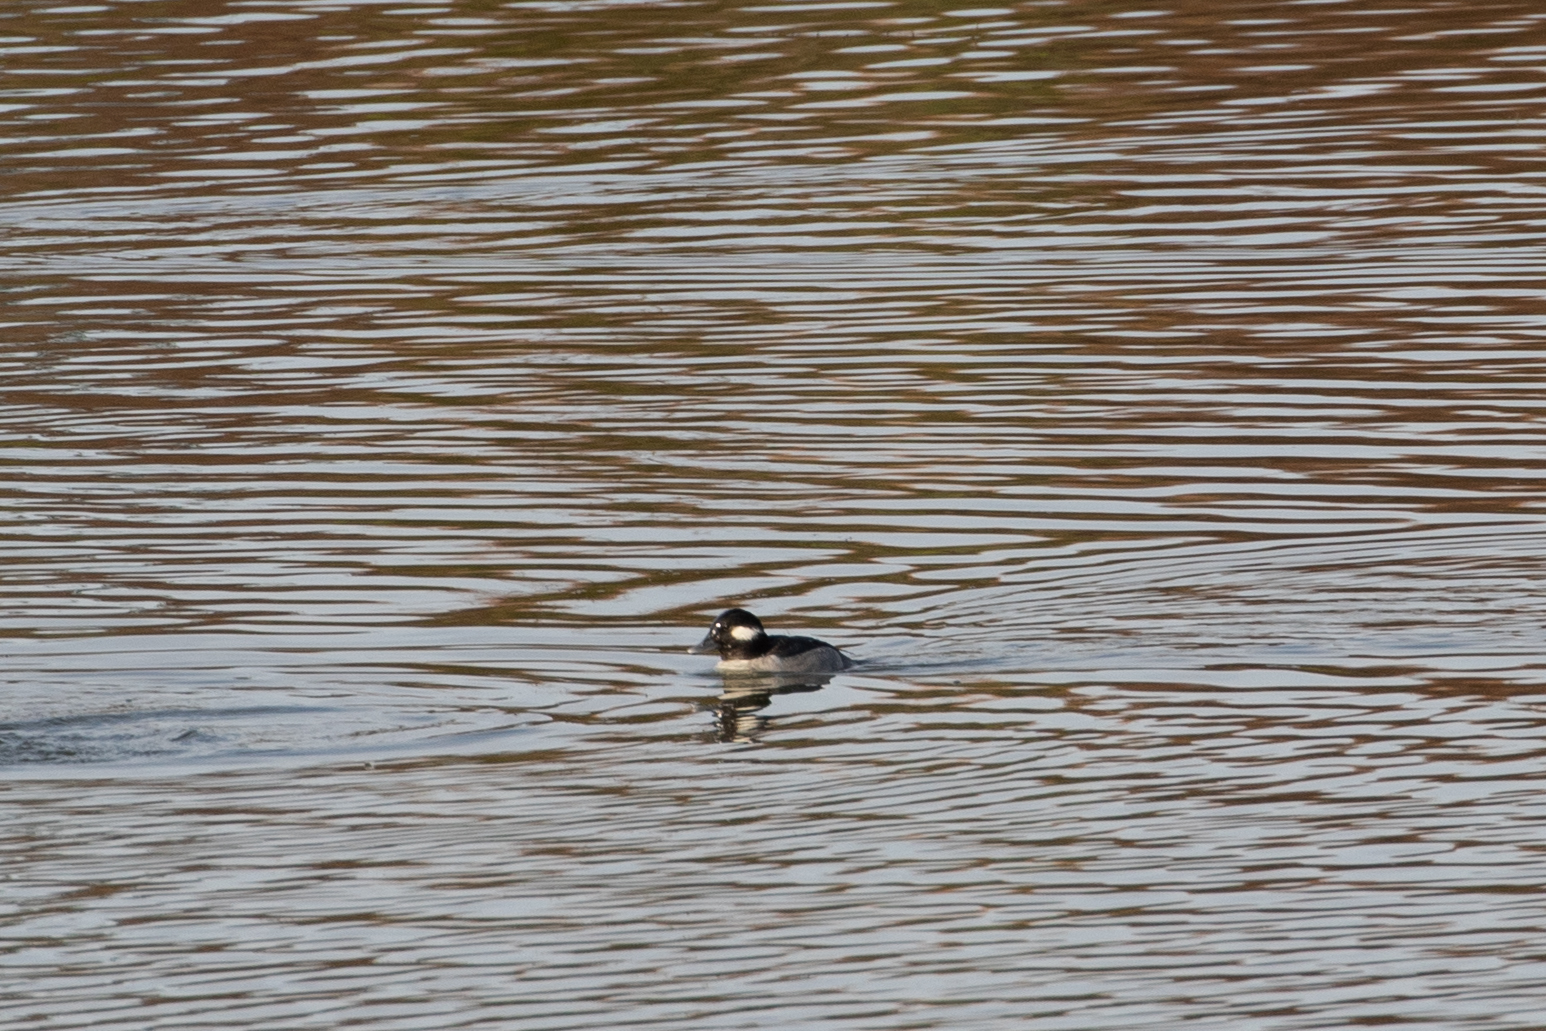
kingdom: Animalia
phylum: Chordata
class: Aves
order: Anseriformes
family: Anatidae
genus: Bucephala
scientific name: Bucephala albeola
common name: Bufflehead
